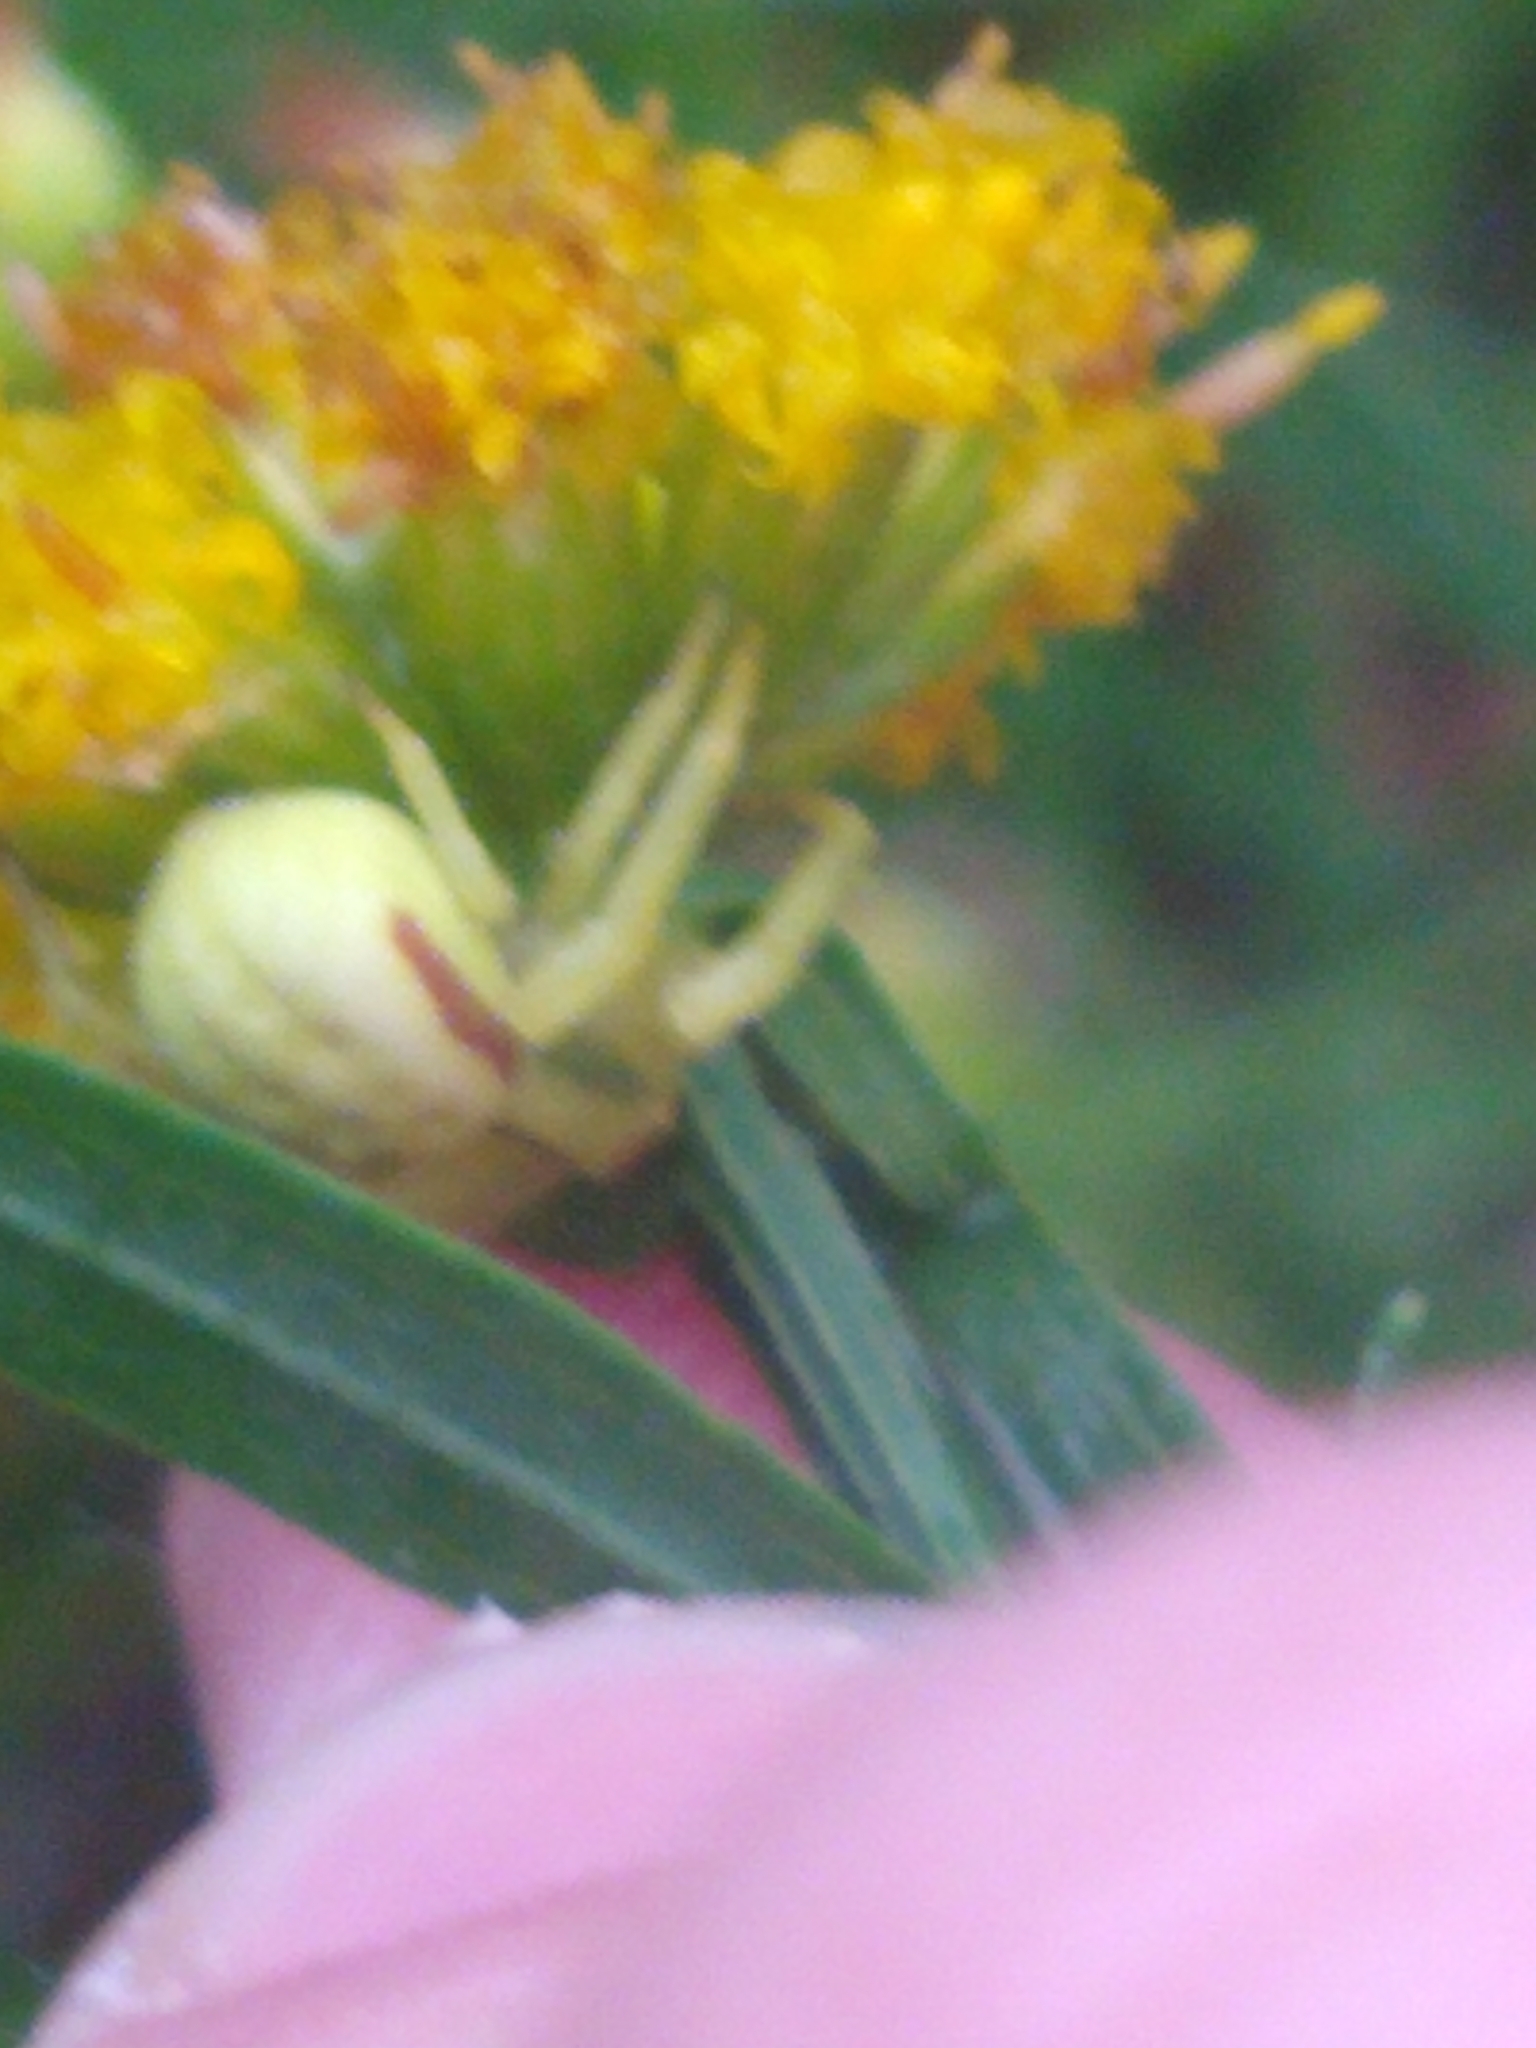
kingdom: Animalia
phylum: Arthropoda
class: Arachnida
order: Araneae
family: Thomisidae
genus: Misumena
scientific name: Misumena vatia
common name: Goldenrod crab spider
